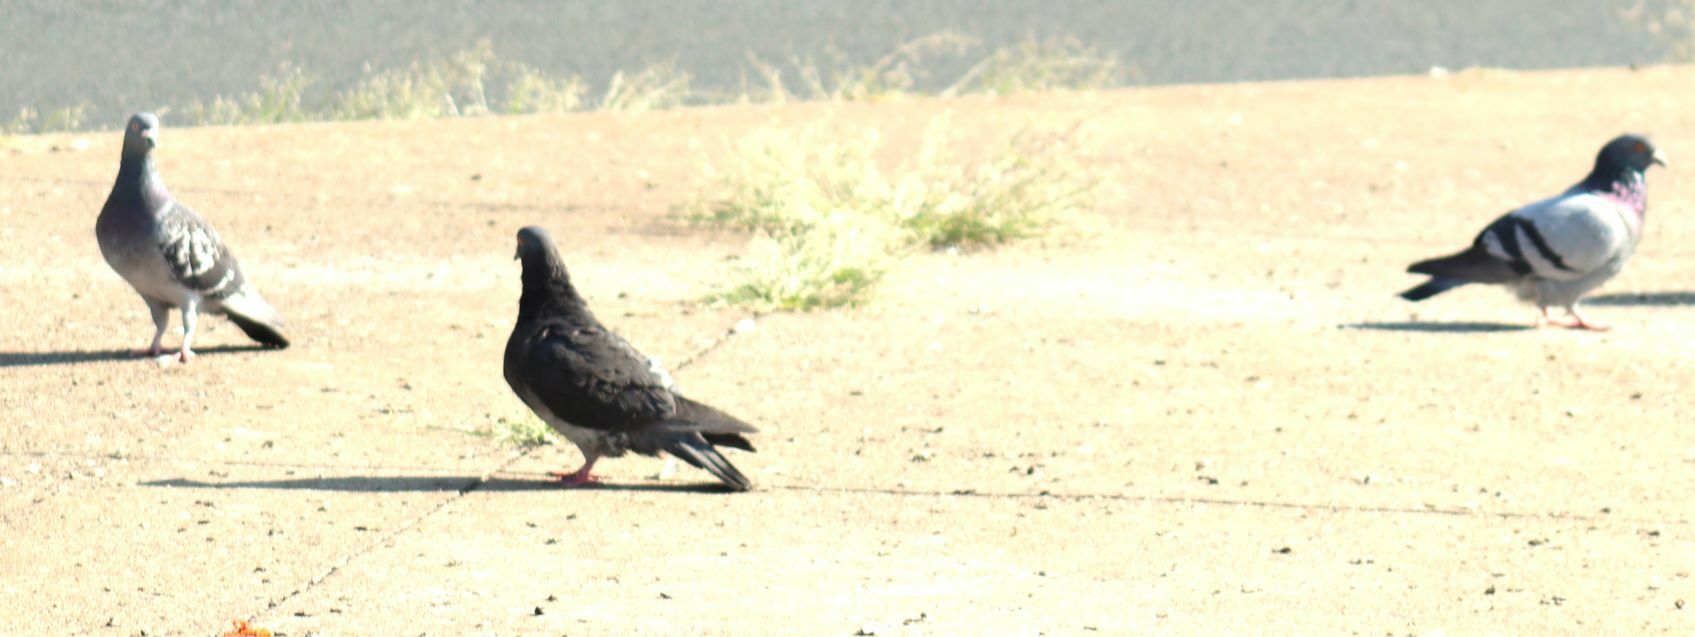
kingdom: Animalia
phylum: Chordata
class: Aves
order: Columbiformes
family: Columbidae
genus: Columba
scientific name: Columba livia
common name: Rock pigeon
